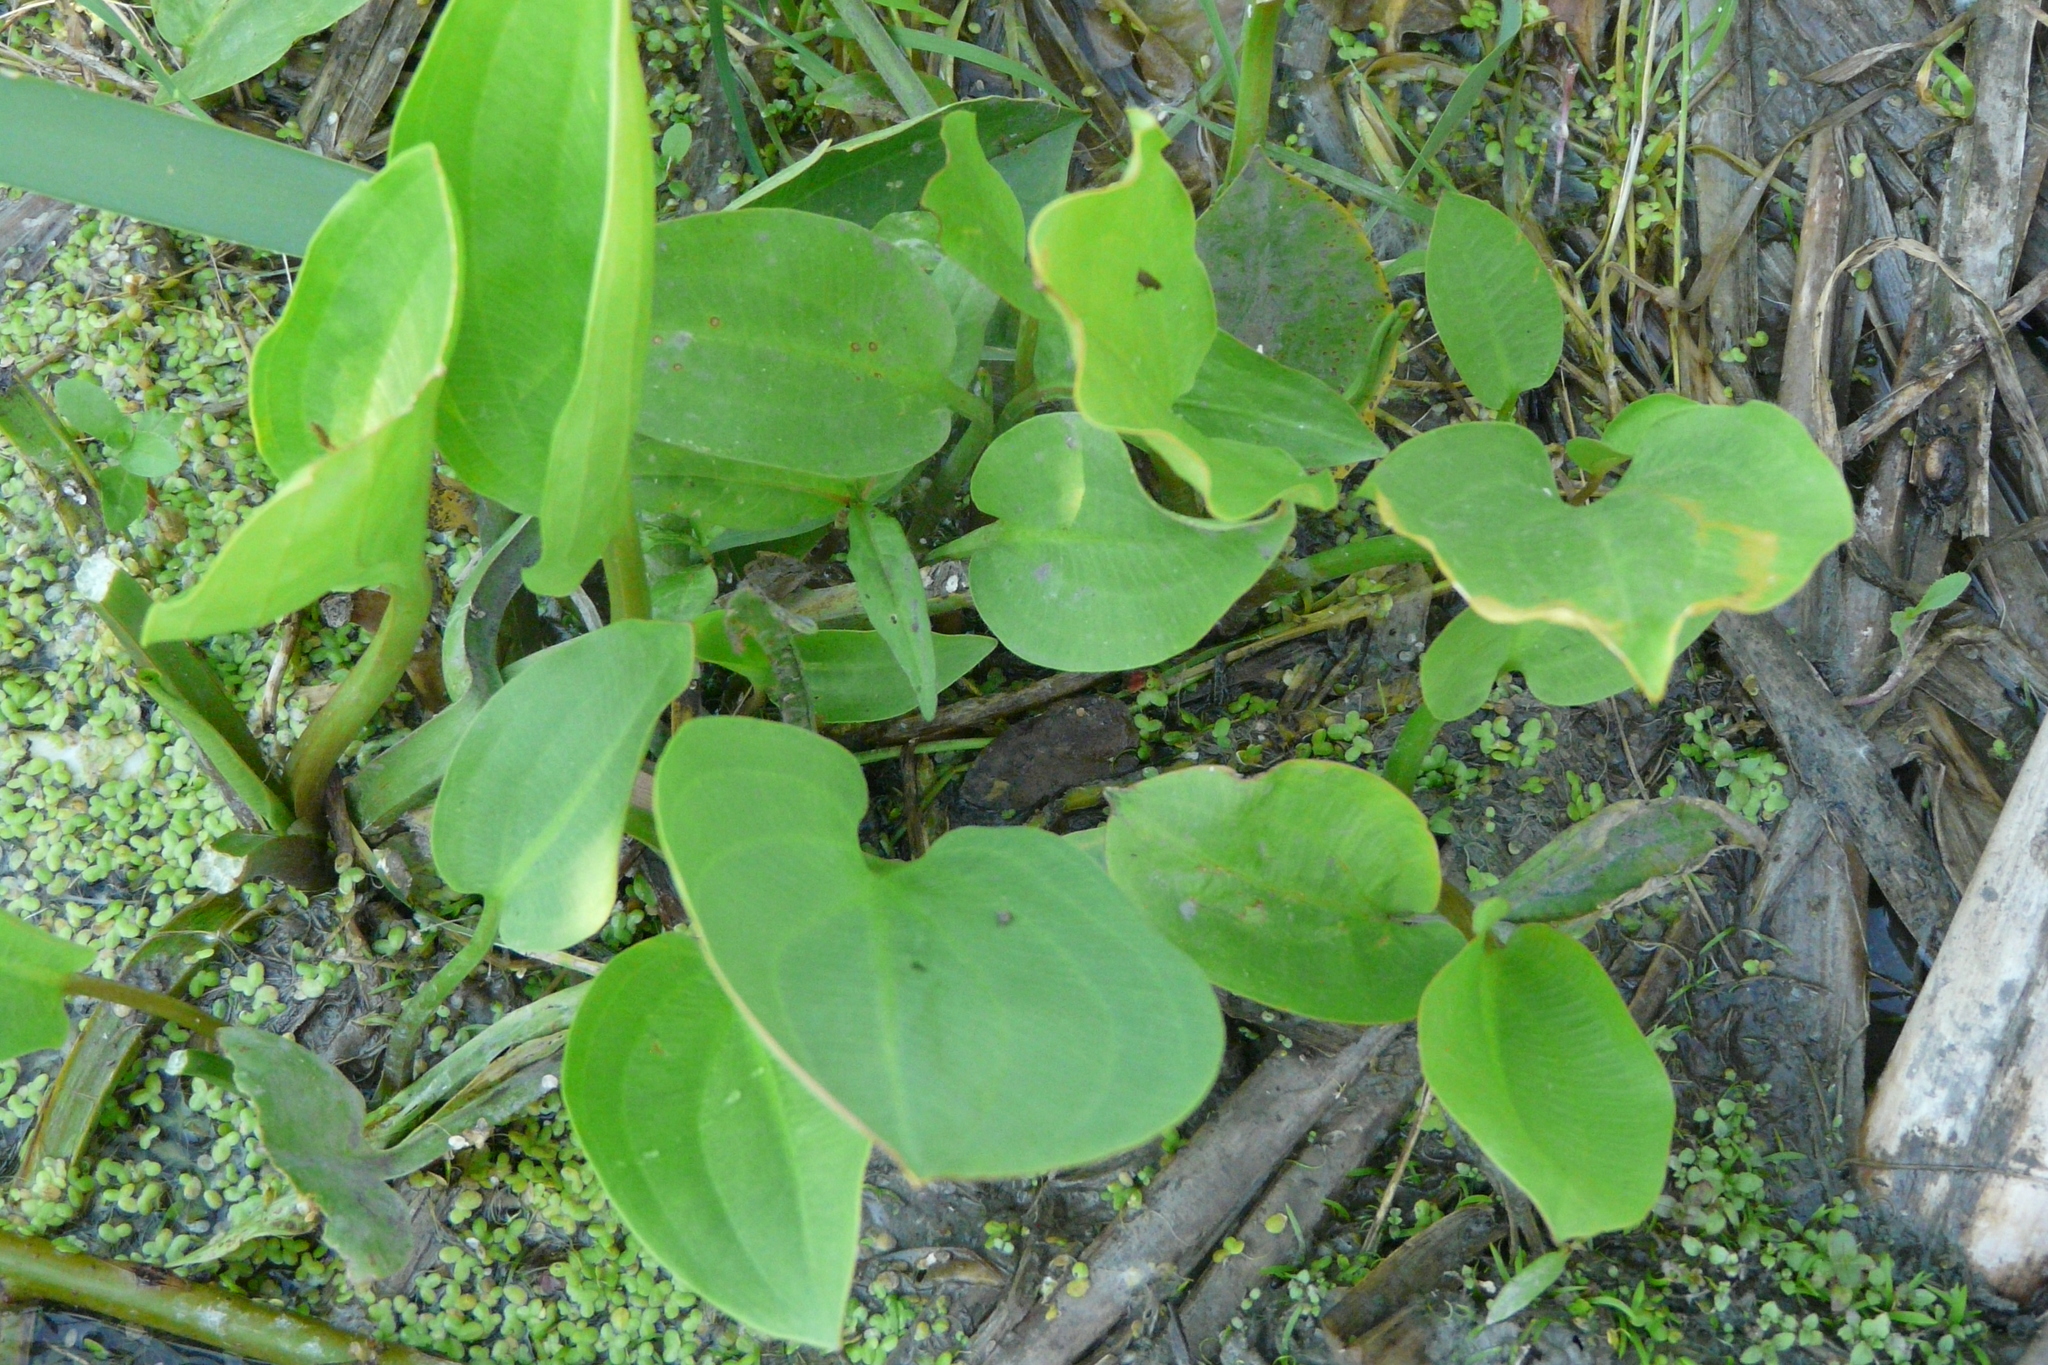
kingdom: Plantae
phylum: Tracheophyta
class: Liliopsida
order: Alismatales
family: Alismataceae
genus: Alisma
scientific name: Alisma plantago-aquatica
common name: Water-plantain
